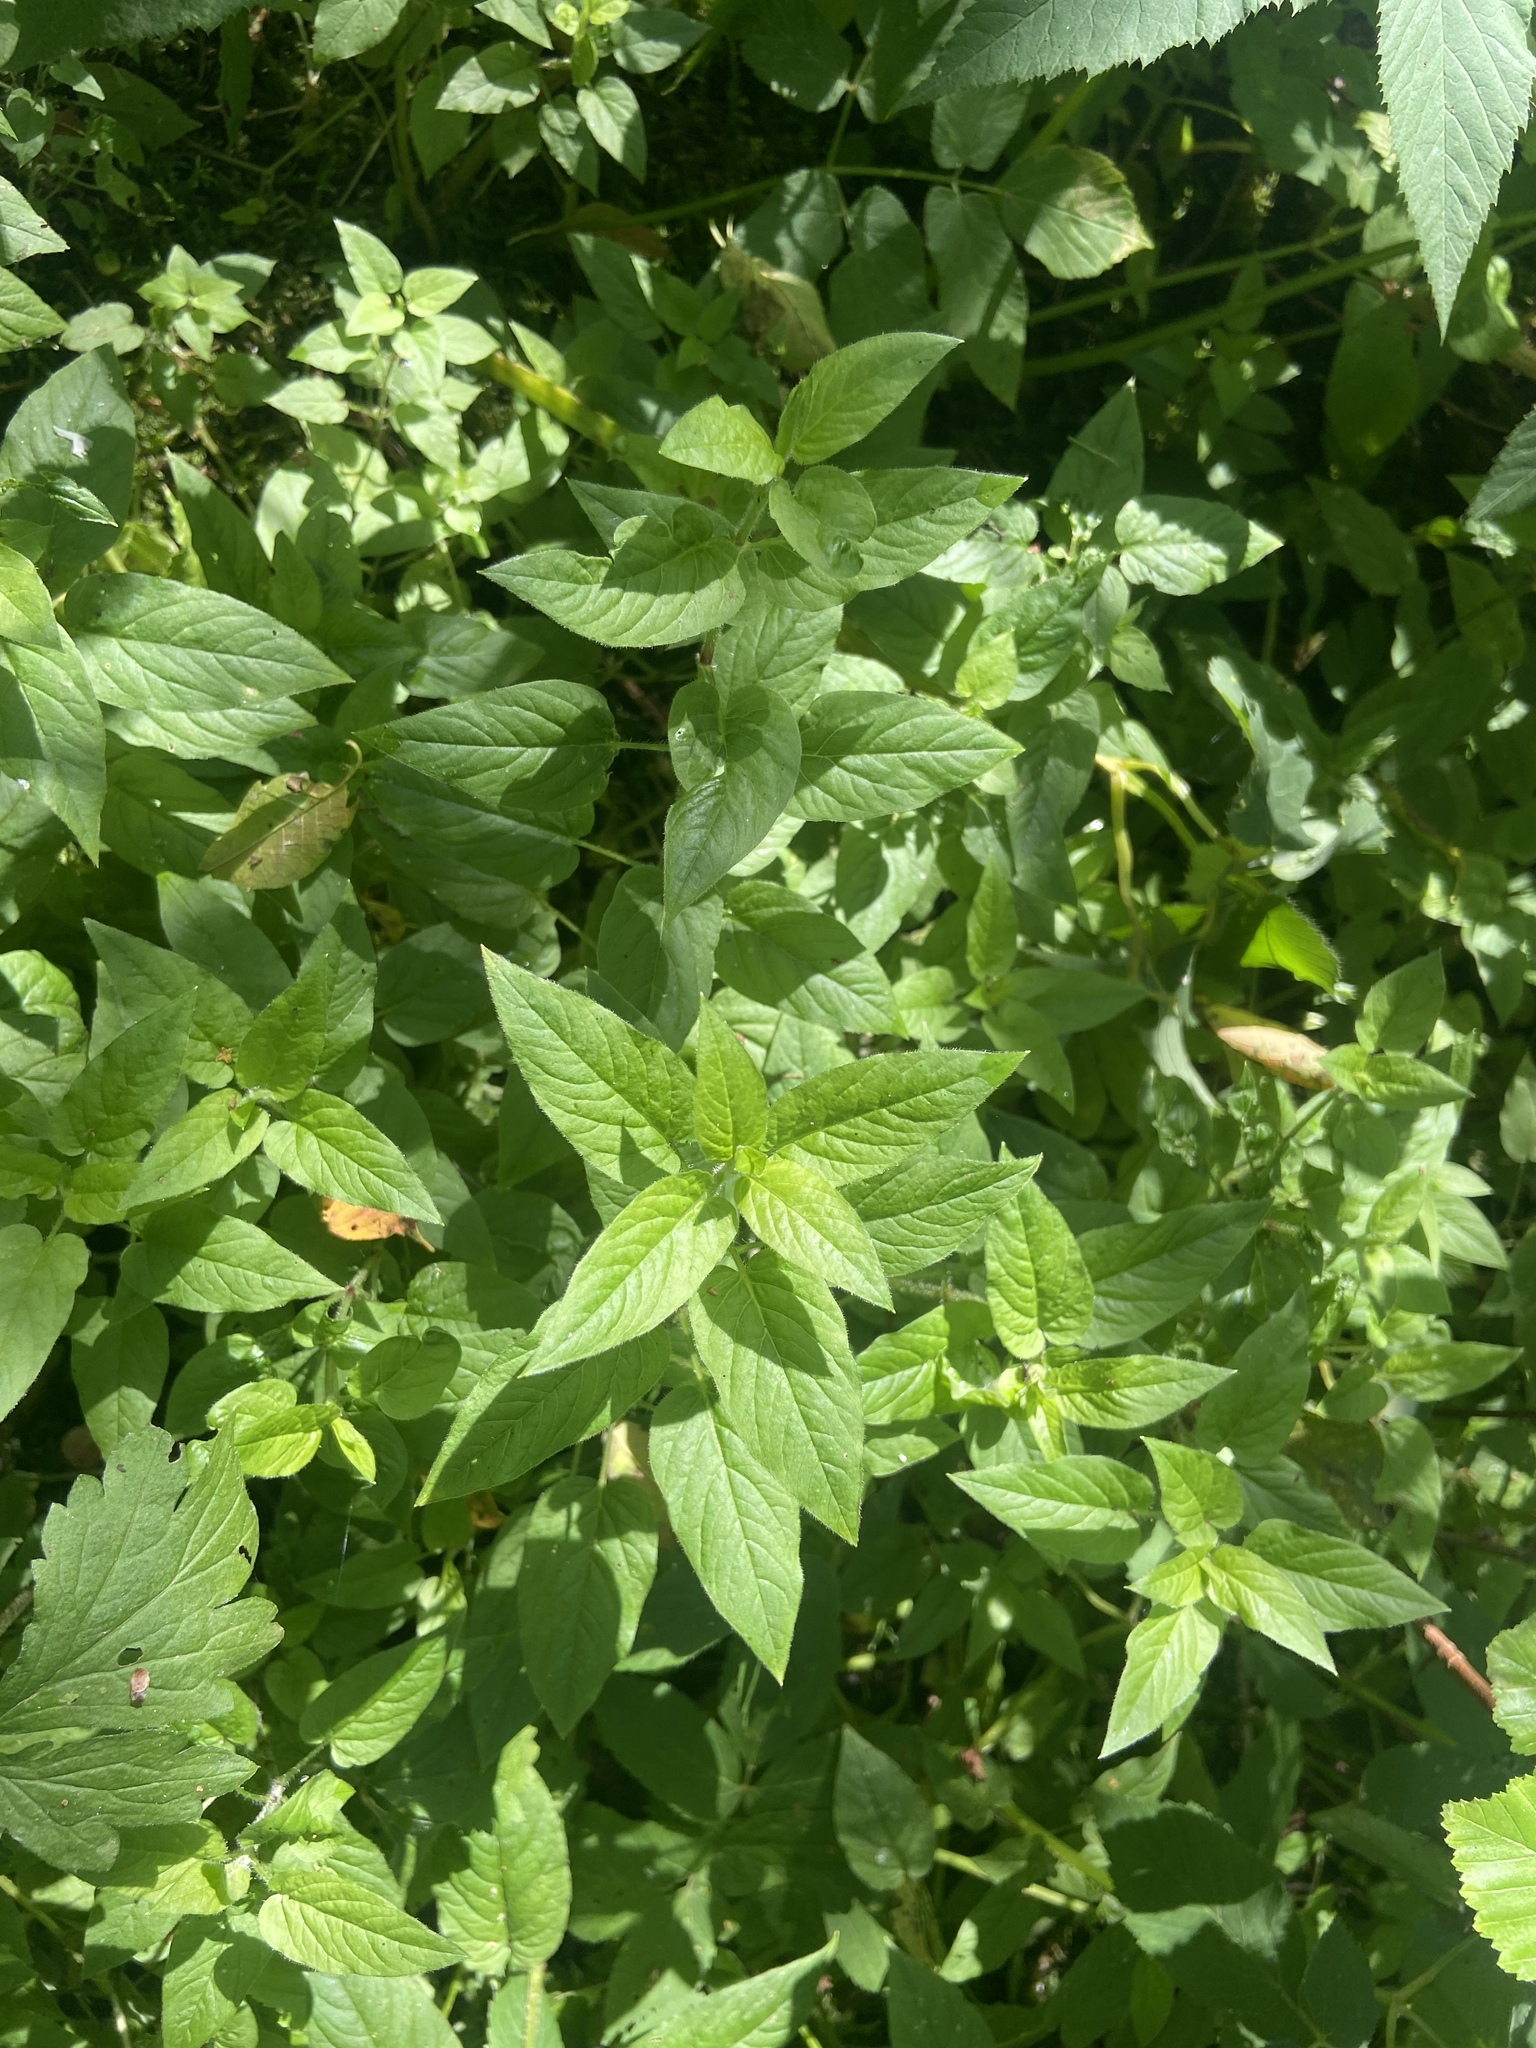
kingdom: Plantae
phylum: Tracheophyta
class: Magnoliopsida
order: Caryophyllales
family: Caryophyllaceae
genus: Stellaria
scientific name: Stellaria nemorum
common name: Wood stitchwort
